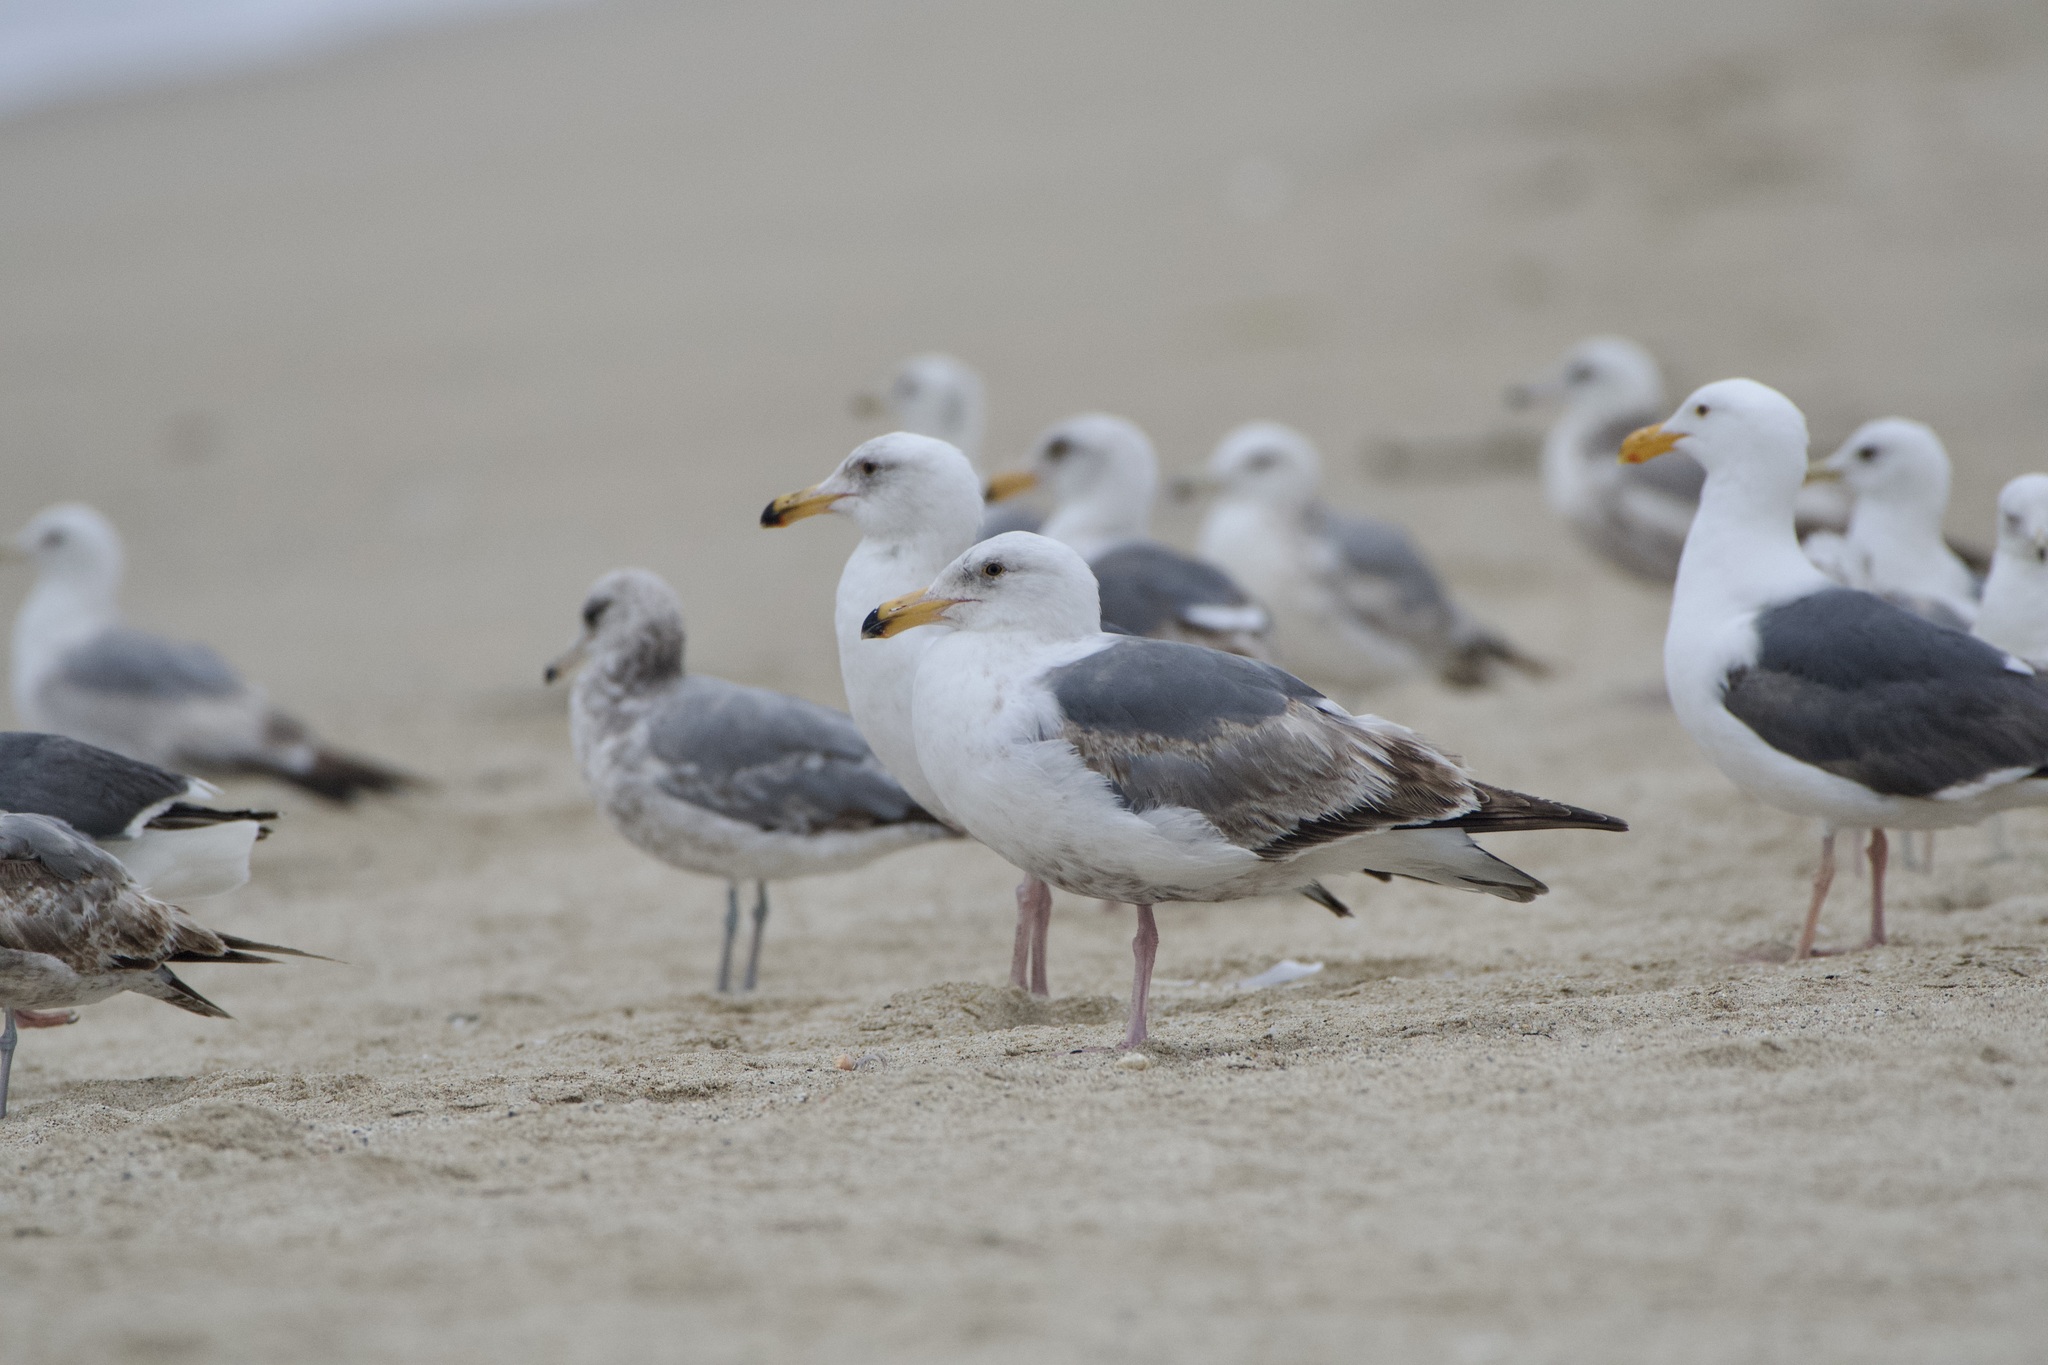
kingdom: Animalia
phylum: Chordata
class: Aves
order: Charadriiformes
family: Laridae
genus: Larus
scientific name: Larus occidentalis
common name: Western gull
